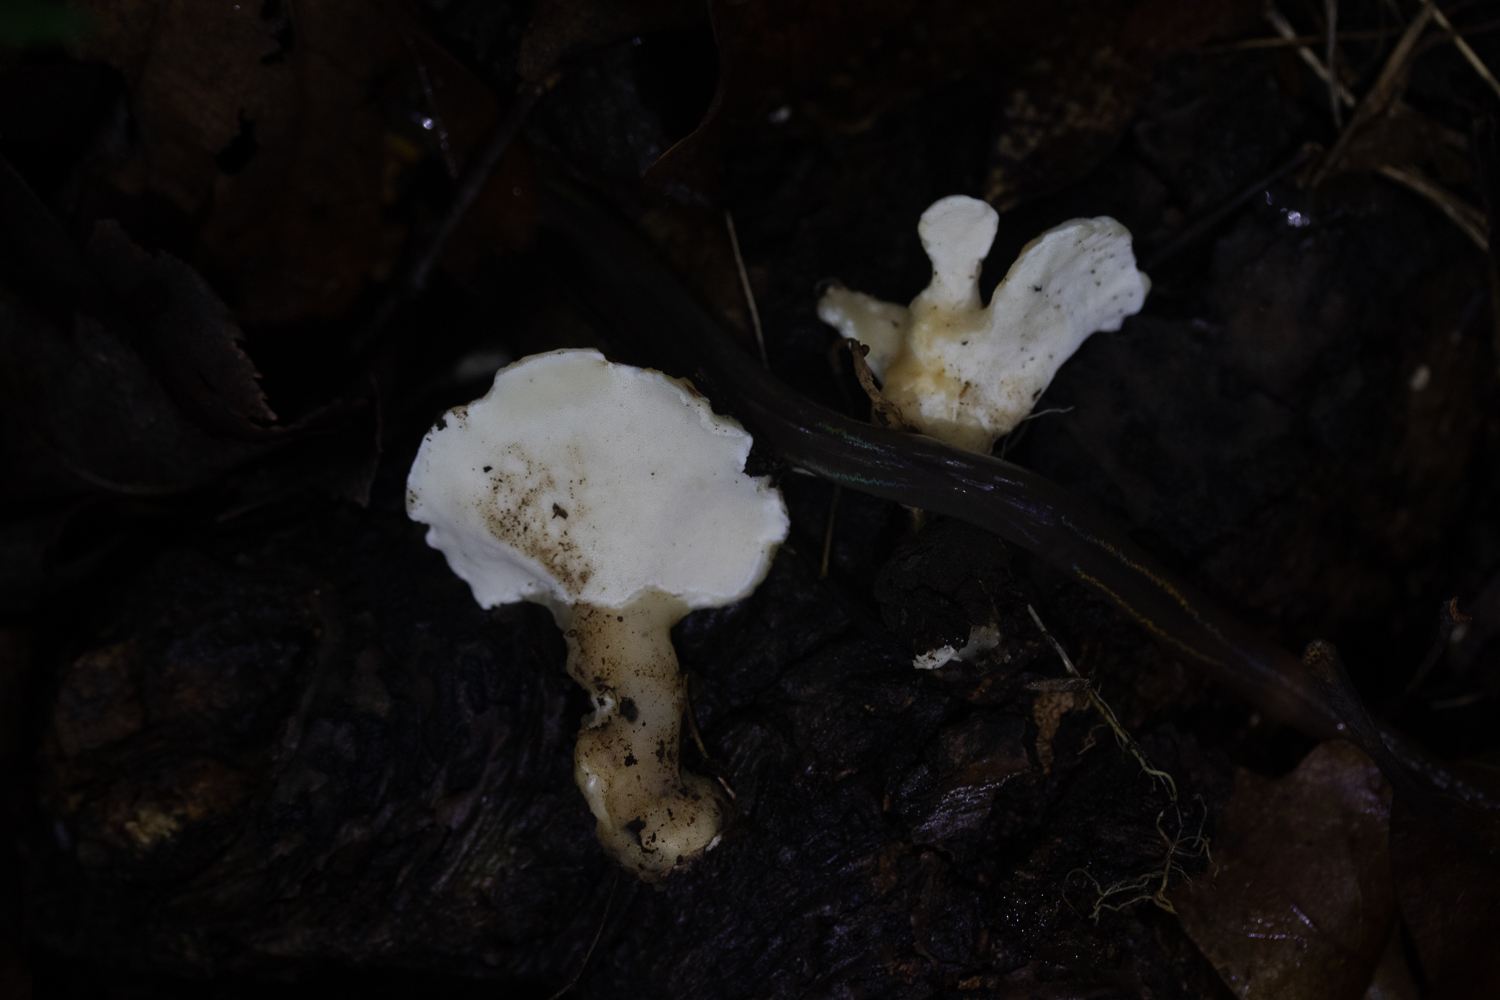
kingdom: Fungi
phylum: Basidiomycota
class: Agaricomycetes
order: Polyporales
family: Steccherinaceae
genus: Loweomyces
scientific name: Loweomyces fractipes
